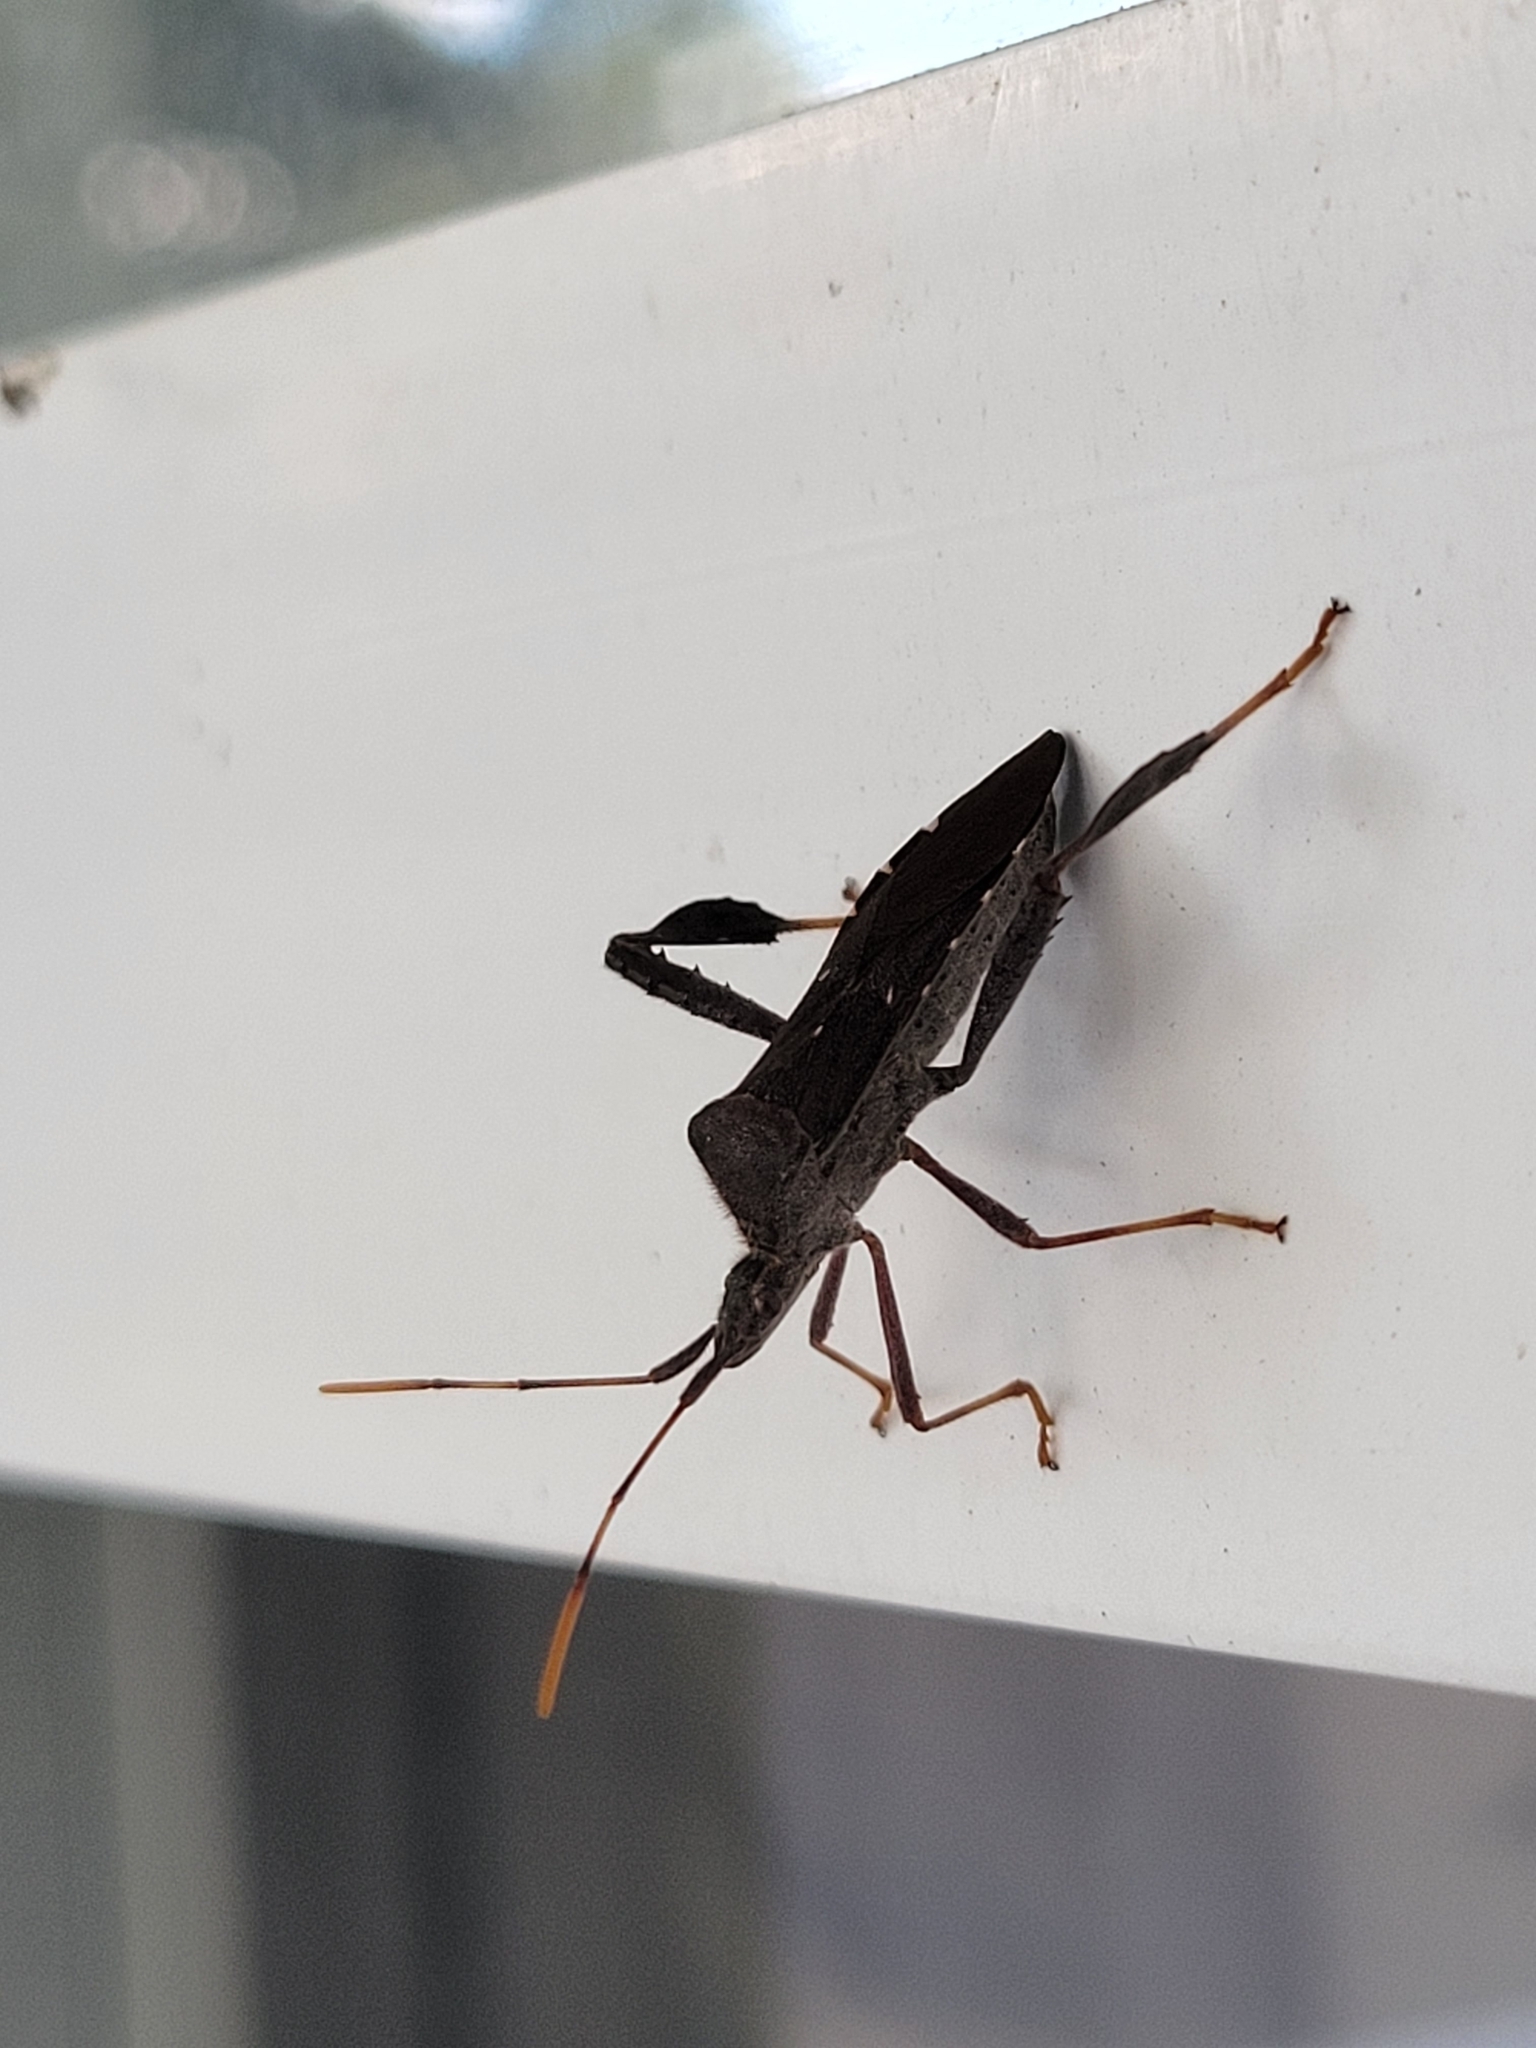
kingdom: Animalia
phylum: Arthropoda
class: Insecta
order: Hemiptera
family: Coreidae
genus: Leptoglossus
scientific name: Leptoglossus oppositus
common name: Northern leaf-footed bug
